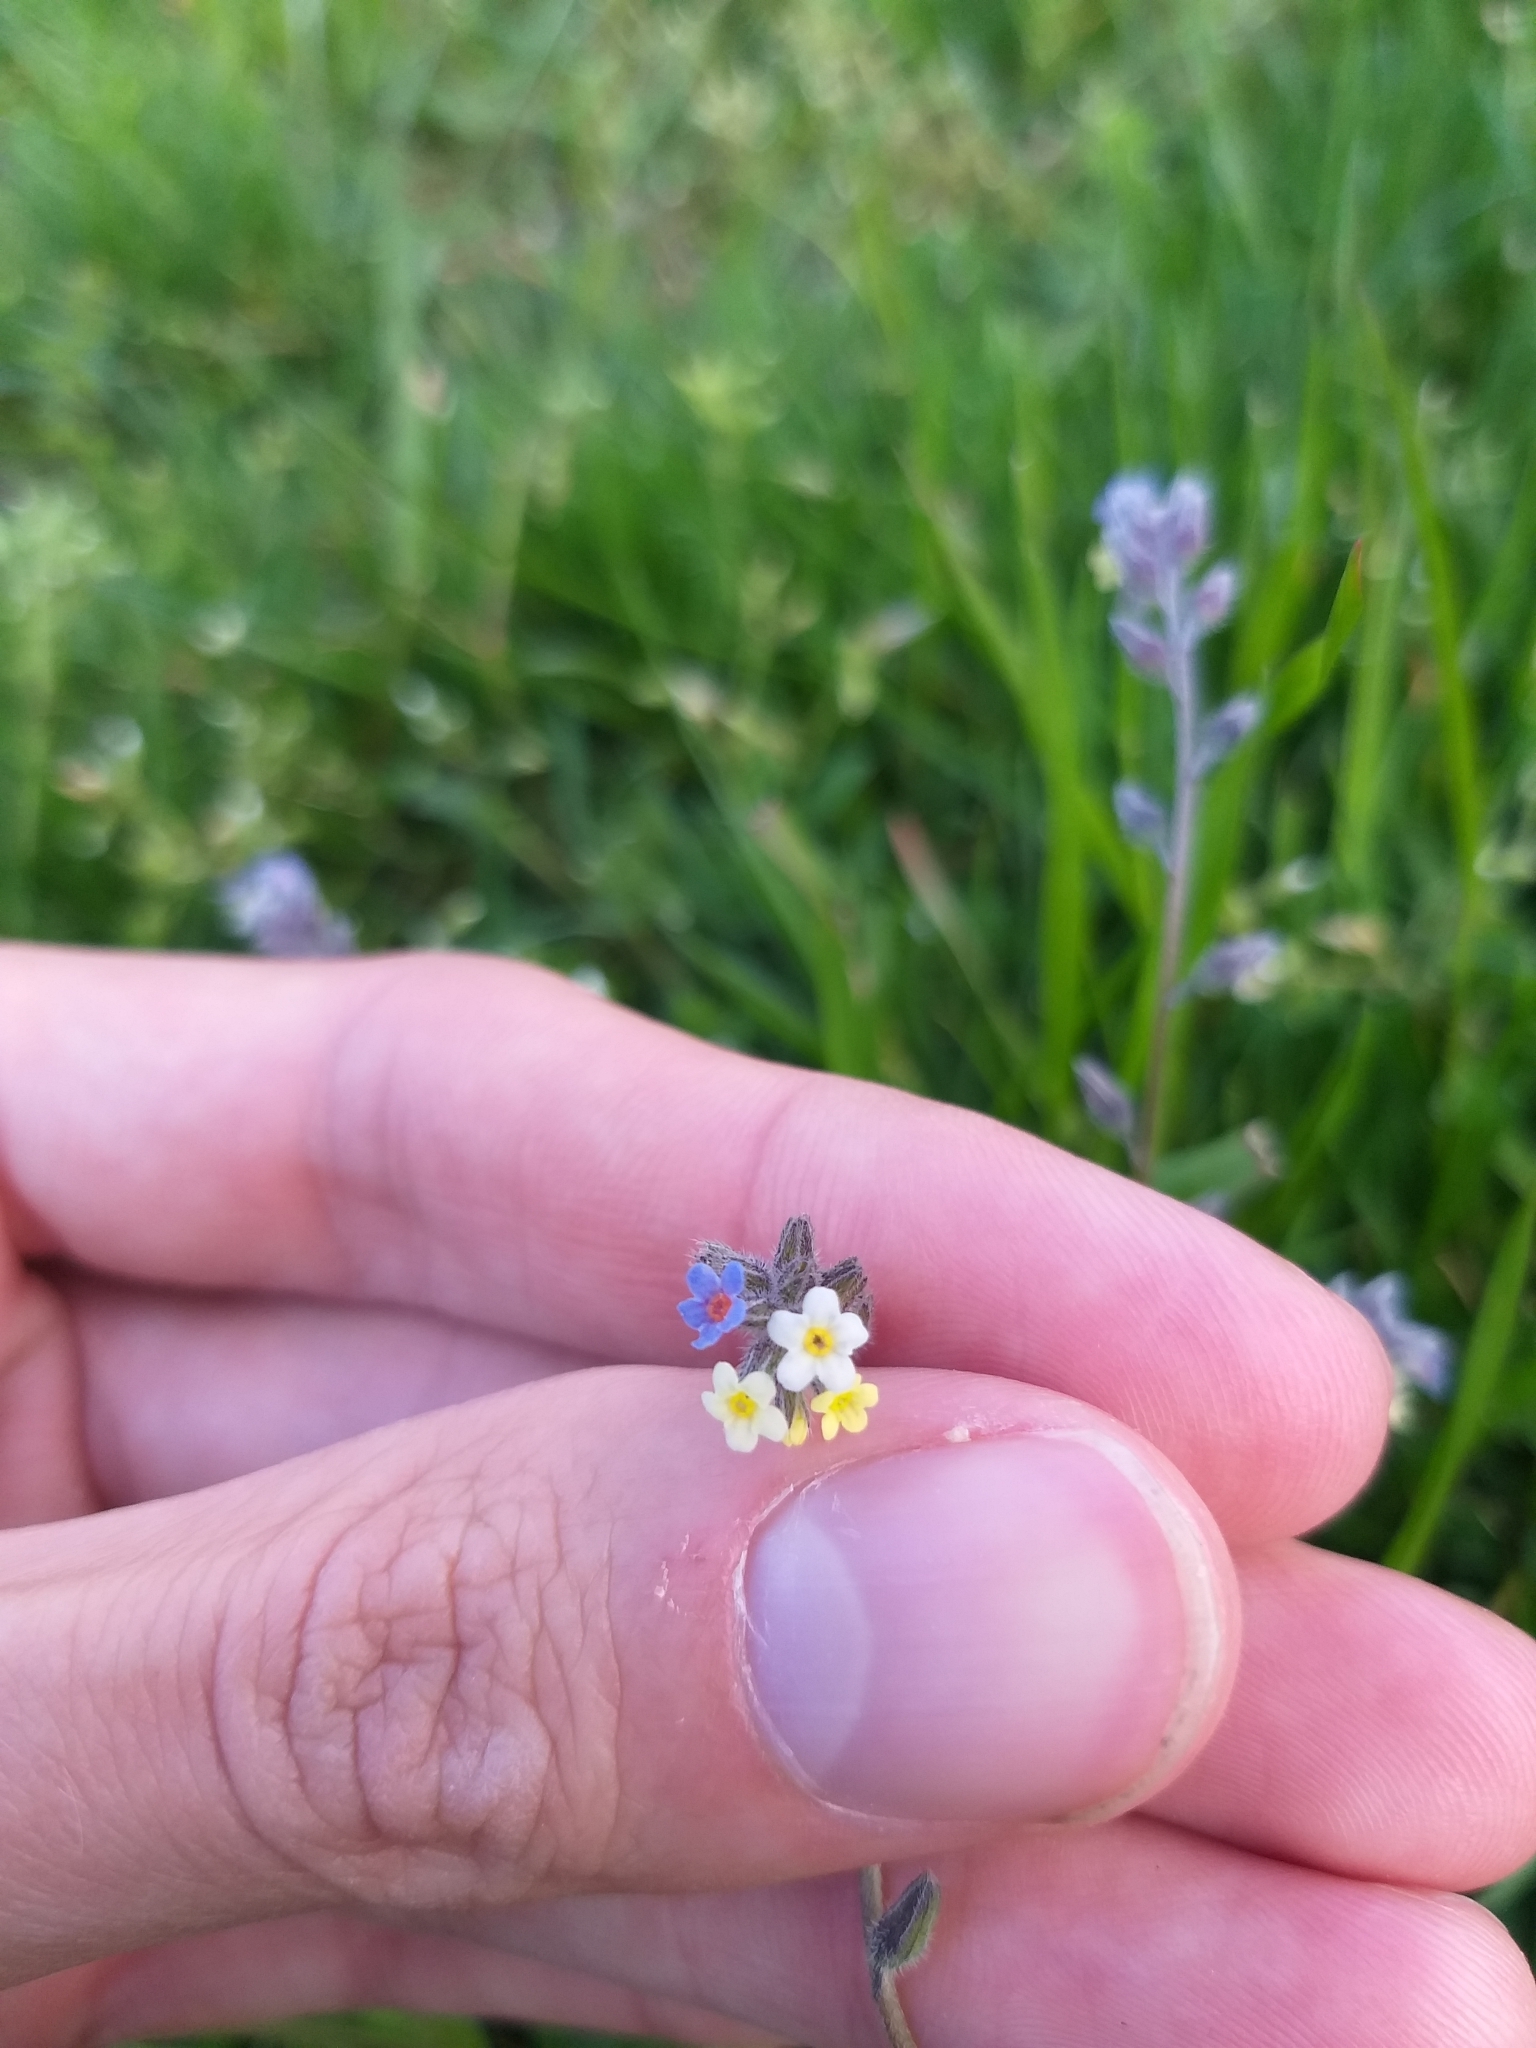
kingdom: Plantae
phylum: Tracheophyta
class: Magnoliopsida
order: Boraginales
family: Boraginaceae
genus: Myosotis
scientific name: Myosotis discolor
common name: Changing forget-me-not
